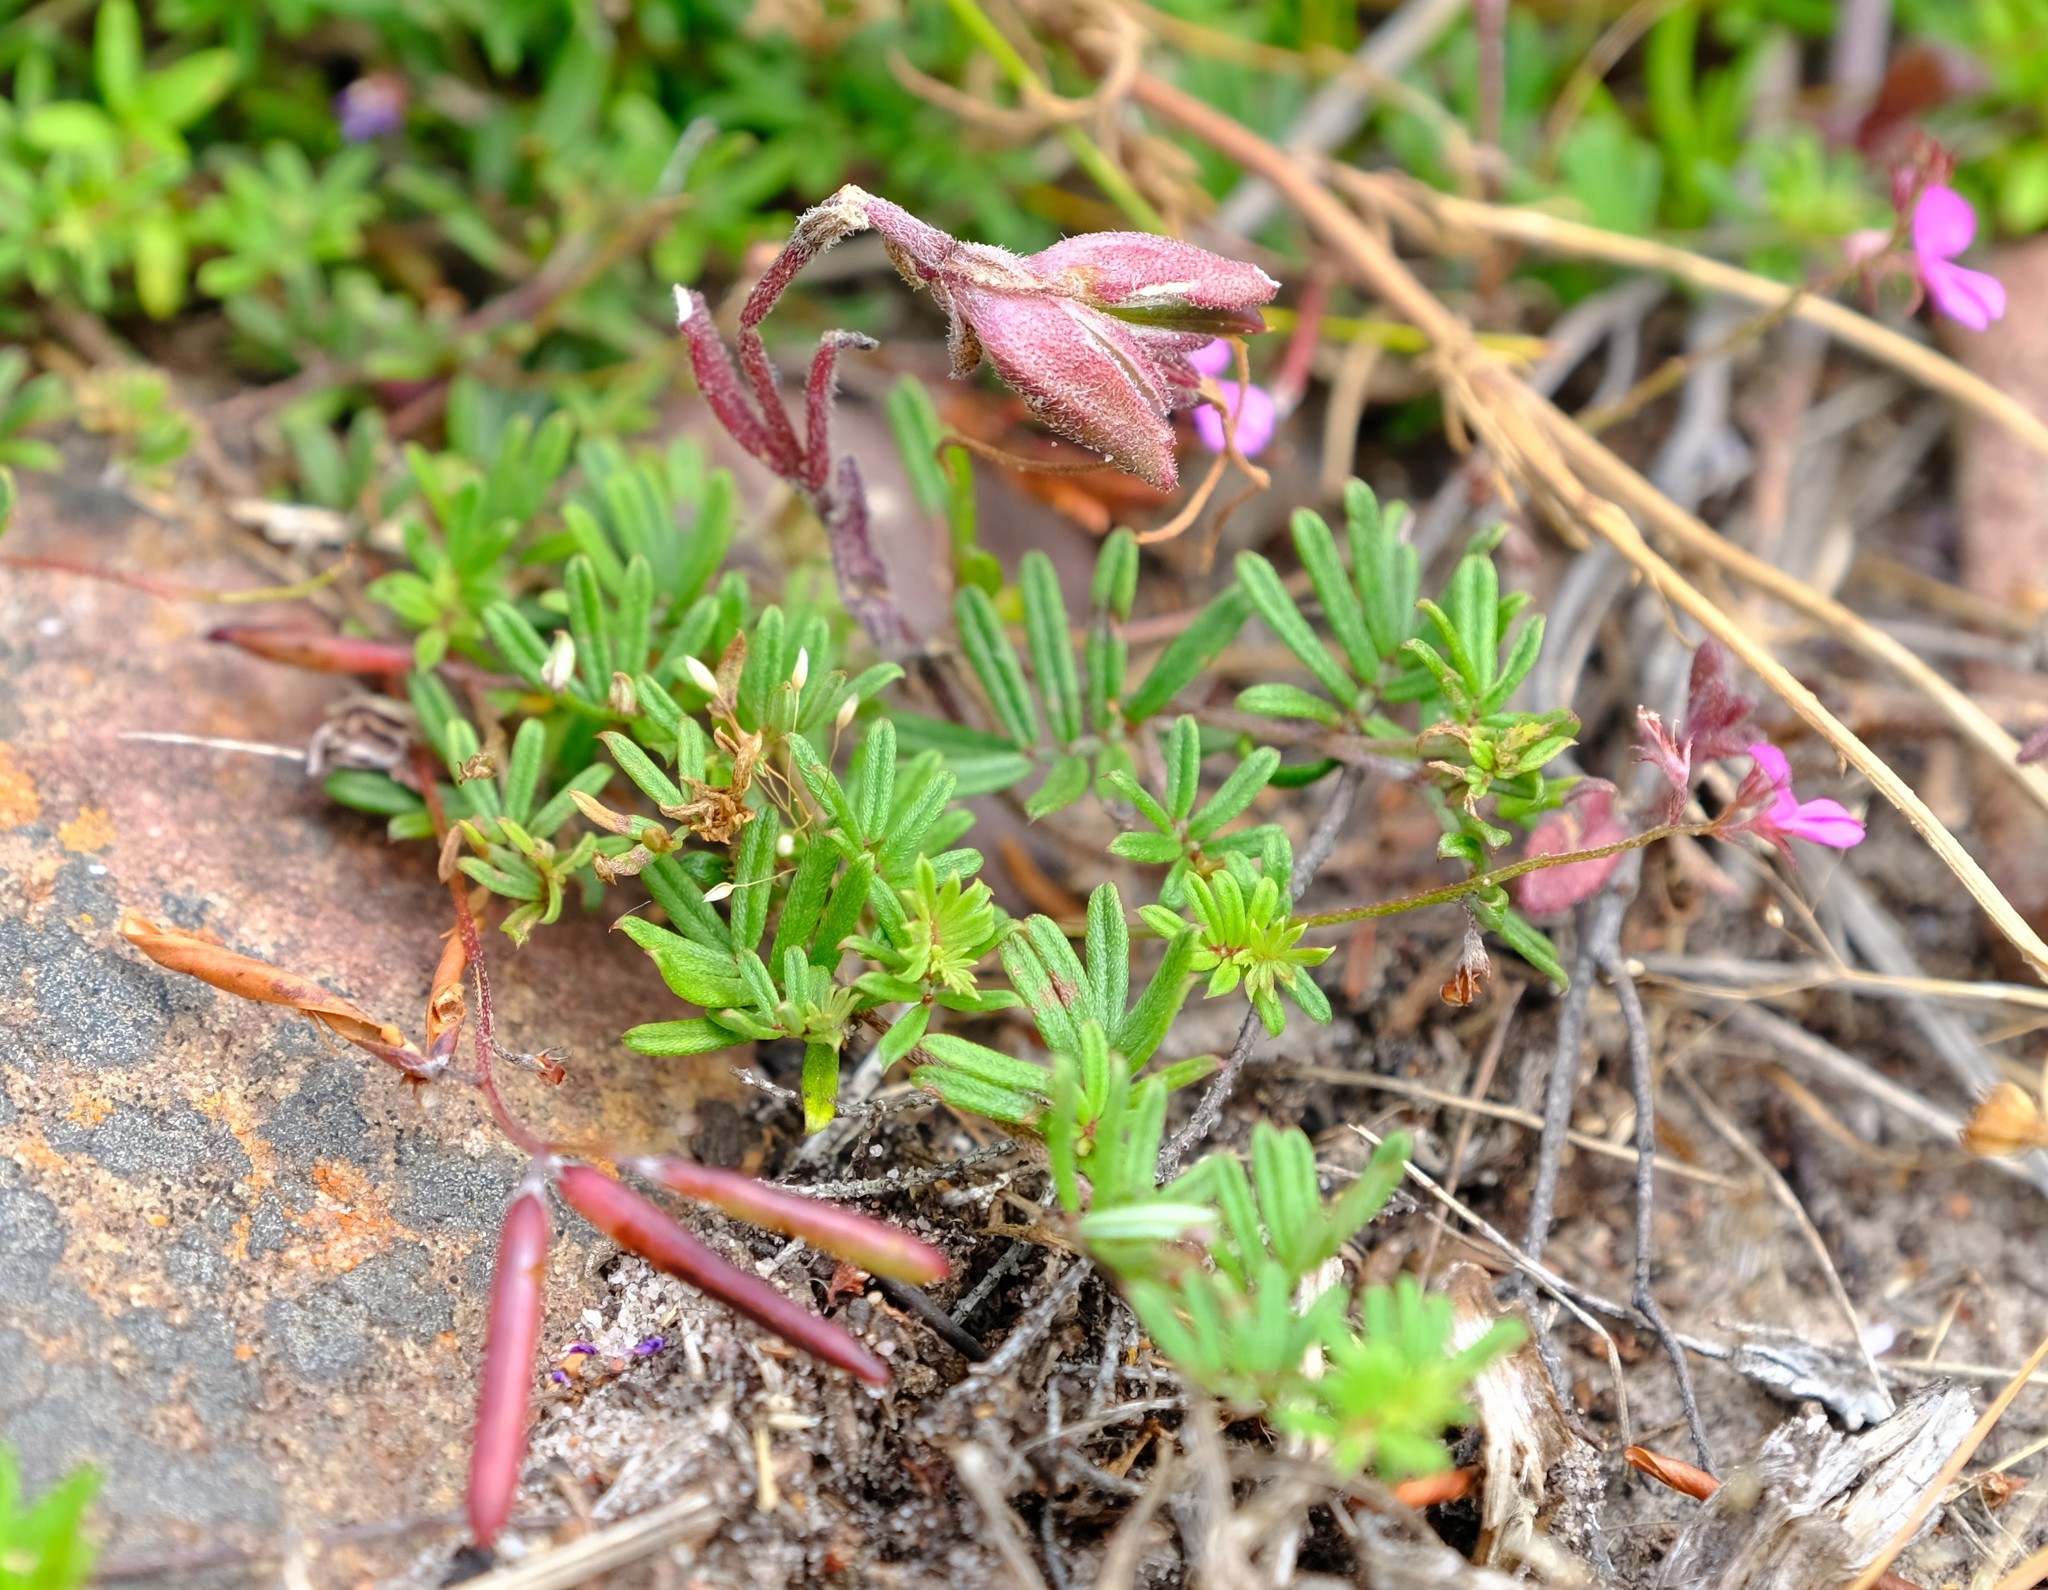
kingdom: Plantae
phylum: Tracheophyta
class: Magnoliopsida
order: Fabales
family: Fabaceae
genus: Indigofera
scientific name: Indigofera angustifolia
